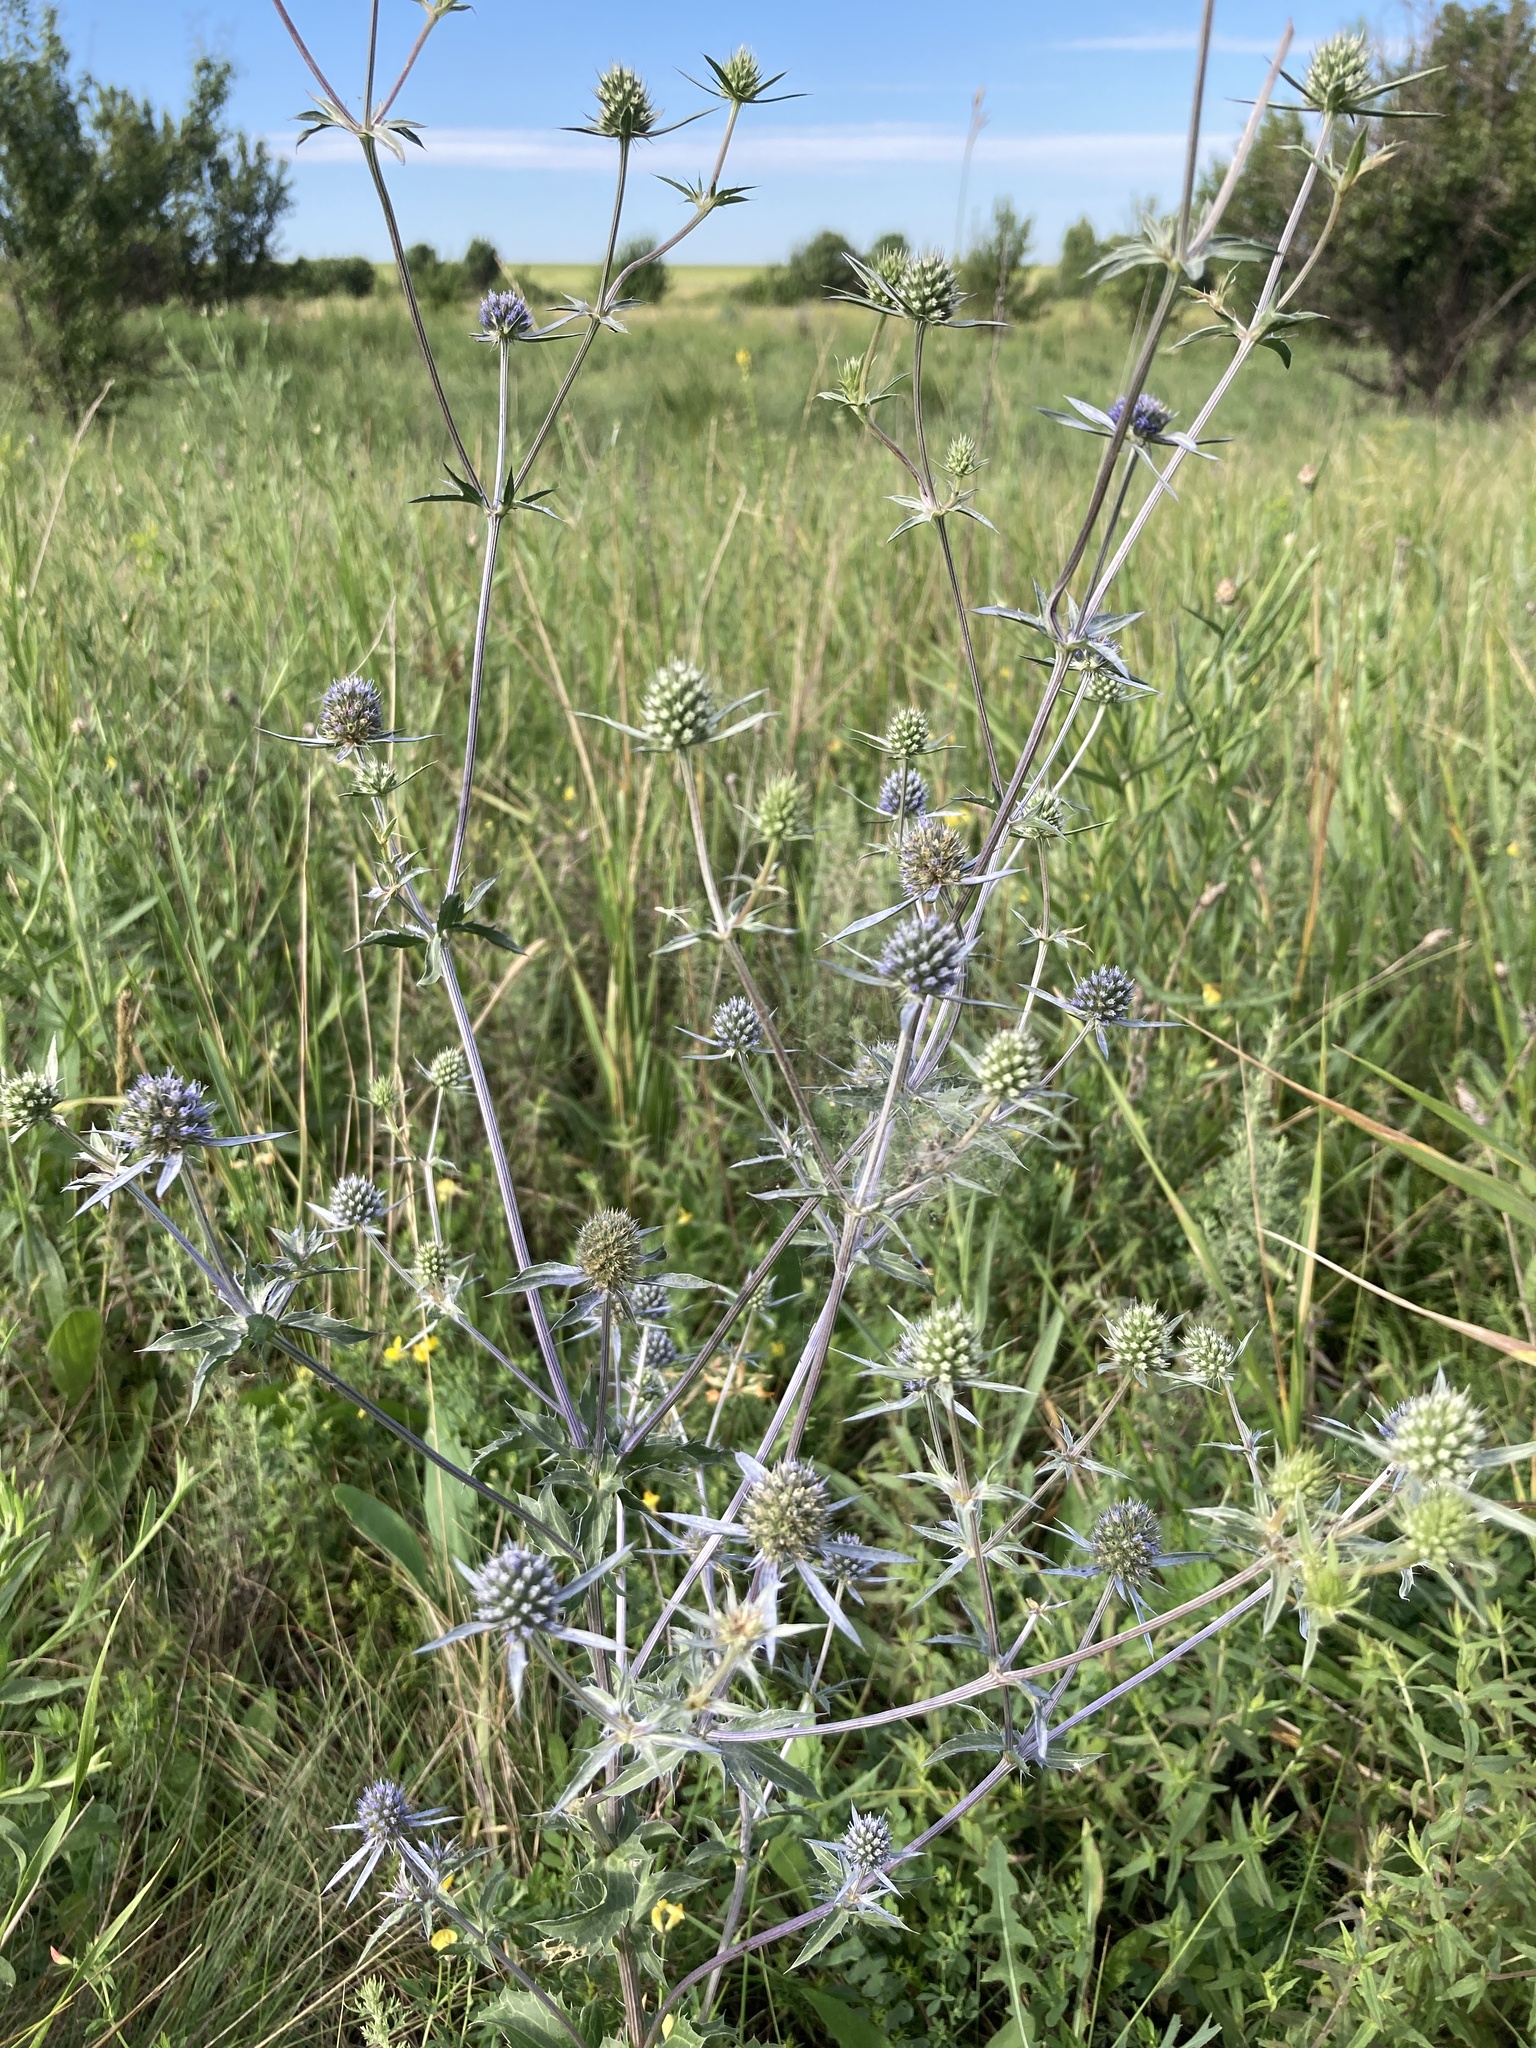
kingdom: Plantae
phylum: Tracheophyta
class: Magnoliopsida
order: Apiales
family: Apiaceae
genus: Eryngium
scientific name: Eryngium planum
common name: Blue eryngo
